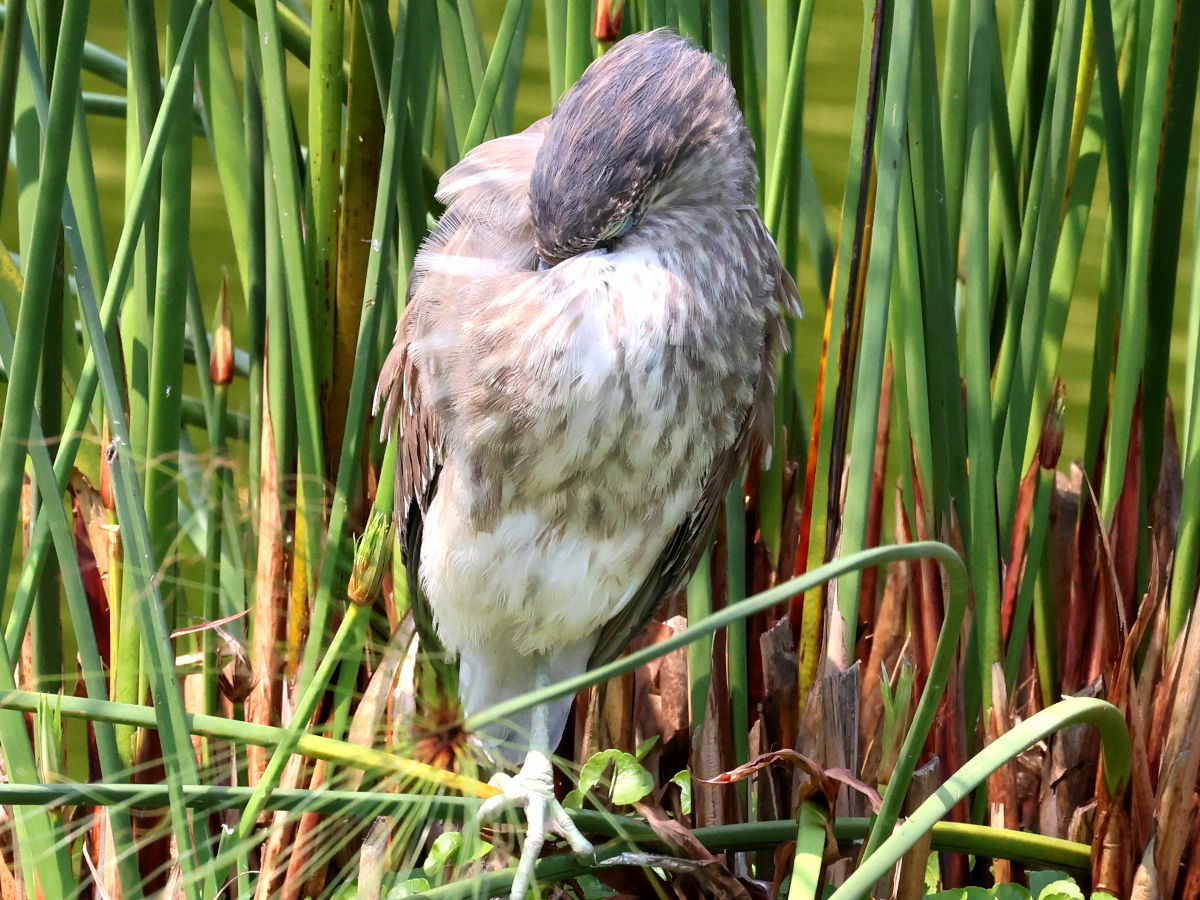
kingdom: Animalia
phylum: Chordata
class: Aves
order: Pelecaniformes
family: Ardeidae
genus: Ardea
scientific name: Ardea cinerea
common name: Grey heron
